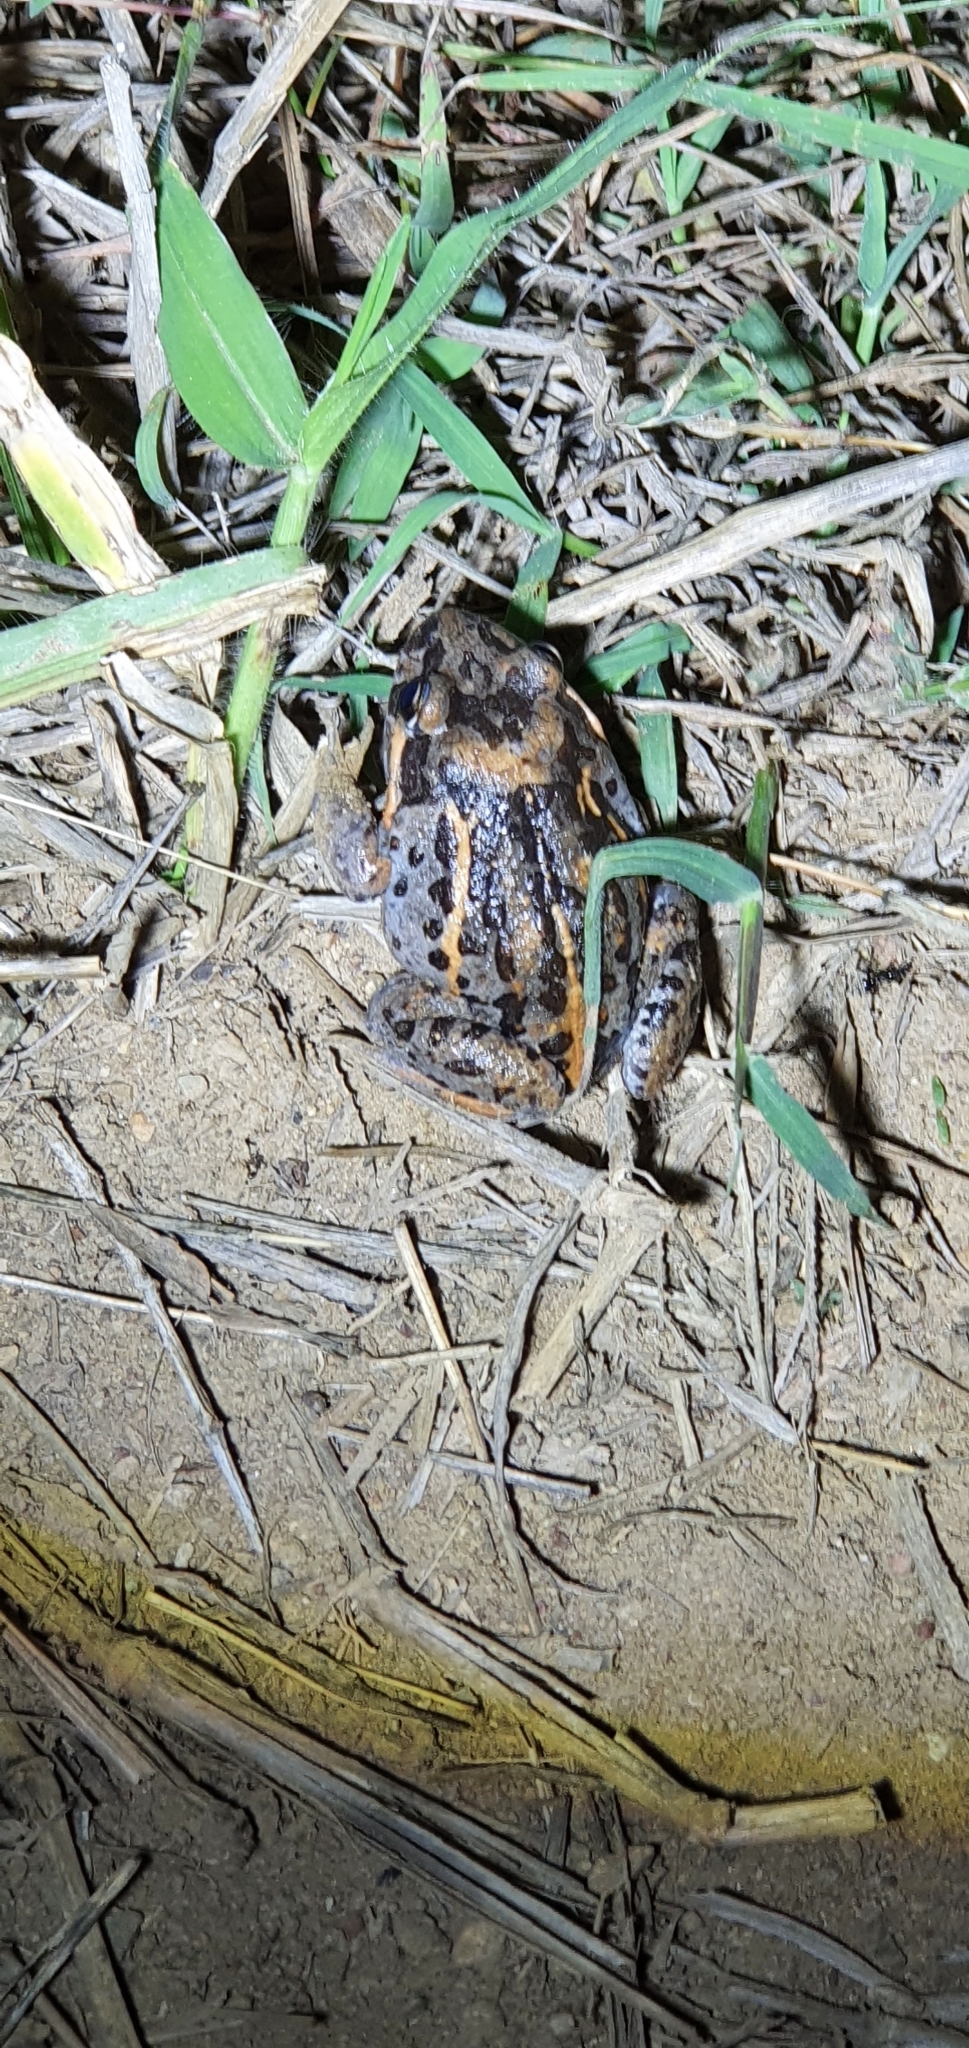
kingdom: Animalia
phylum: Chordata
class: Amphibia
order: Anura
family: Limnodynastidae
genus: Limnodynastes
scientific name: Limnodynastes salmini
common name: Salmon-striped frog
